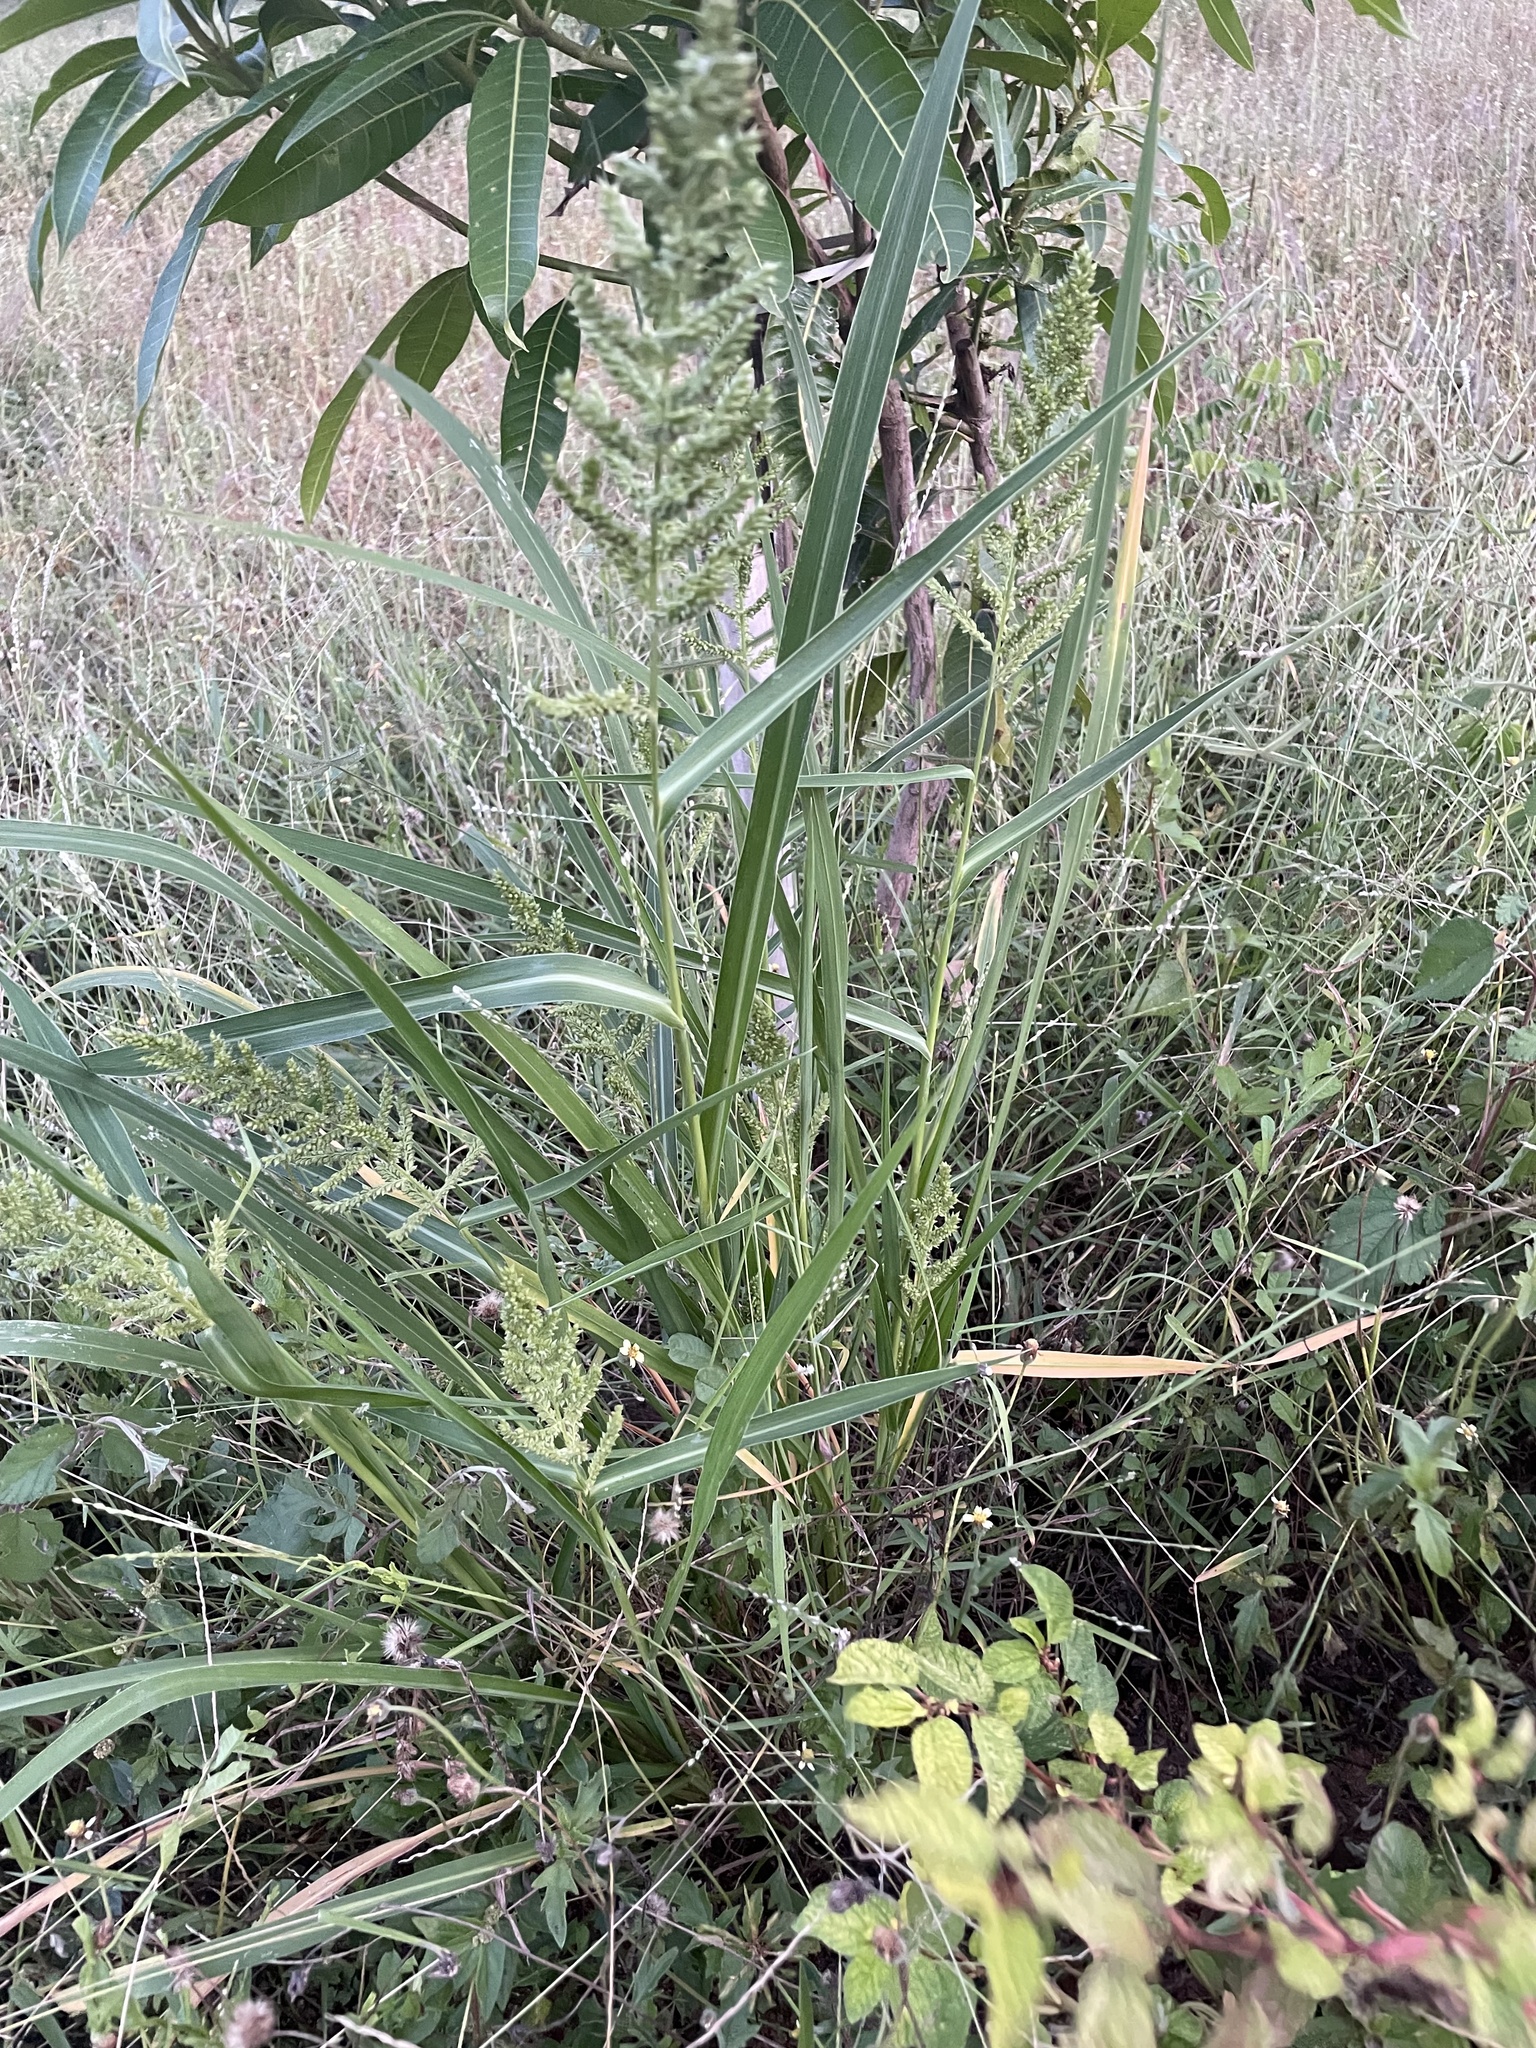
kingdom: Plantae
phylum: Tracheophyta
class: Liliopsida
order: Poales
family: Poaceae
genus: Echinochloa
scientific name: Echinochloa crus-galli
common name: Cockspur
